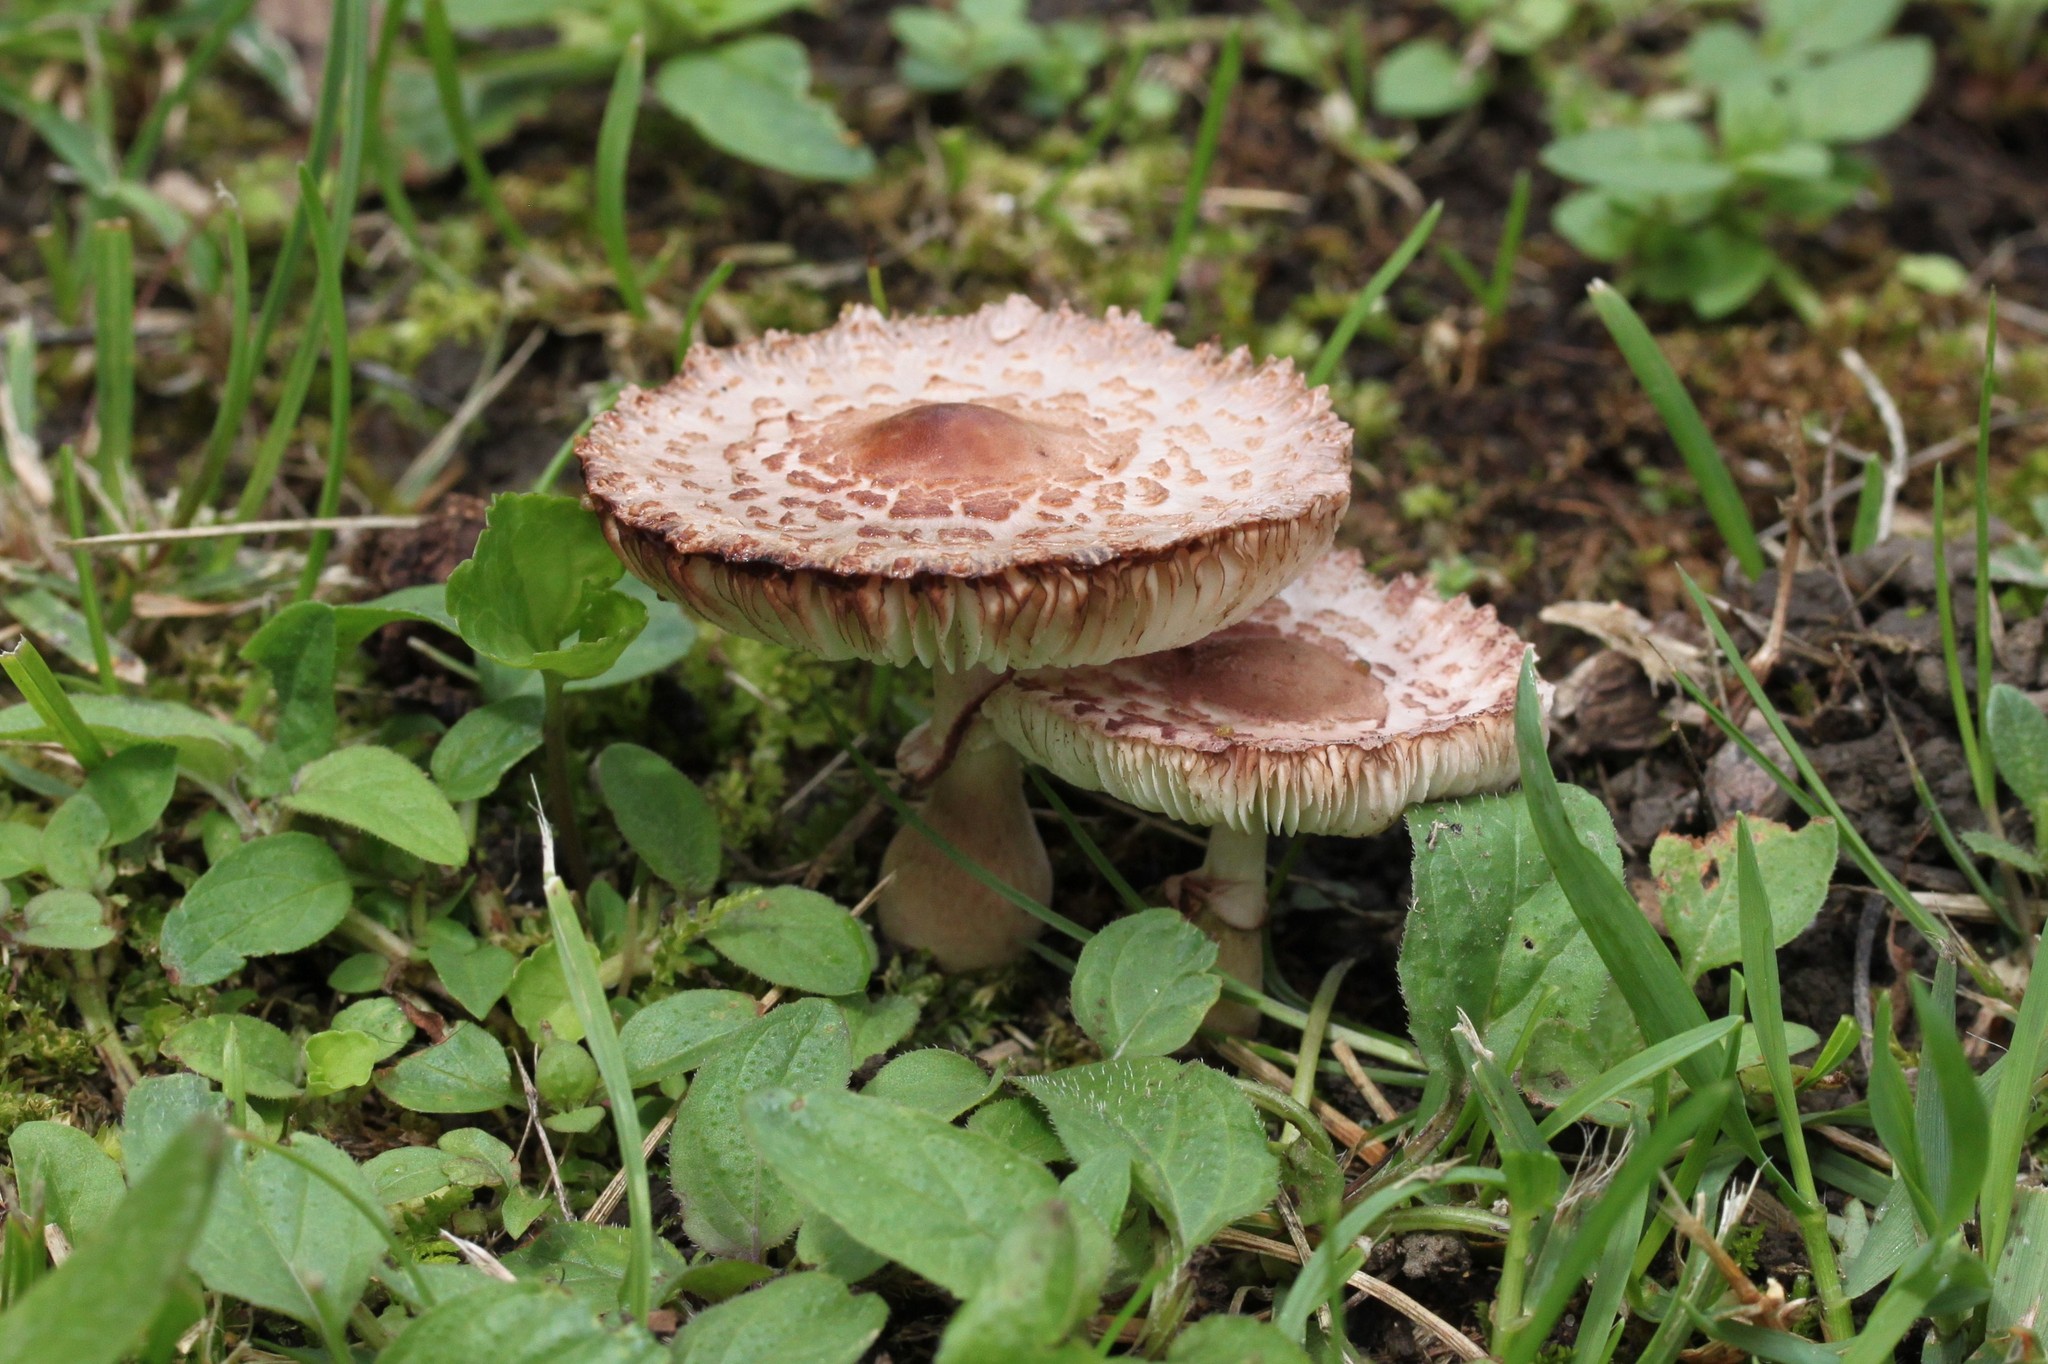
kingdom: Fungi
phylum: Basidiomycota
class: Agaricomycetes
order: Agaricales
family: Agaricaceae
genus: Leucoagaricus
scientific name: Leucoagaricus americanus
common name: Reddening lepiota
